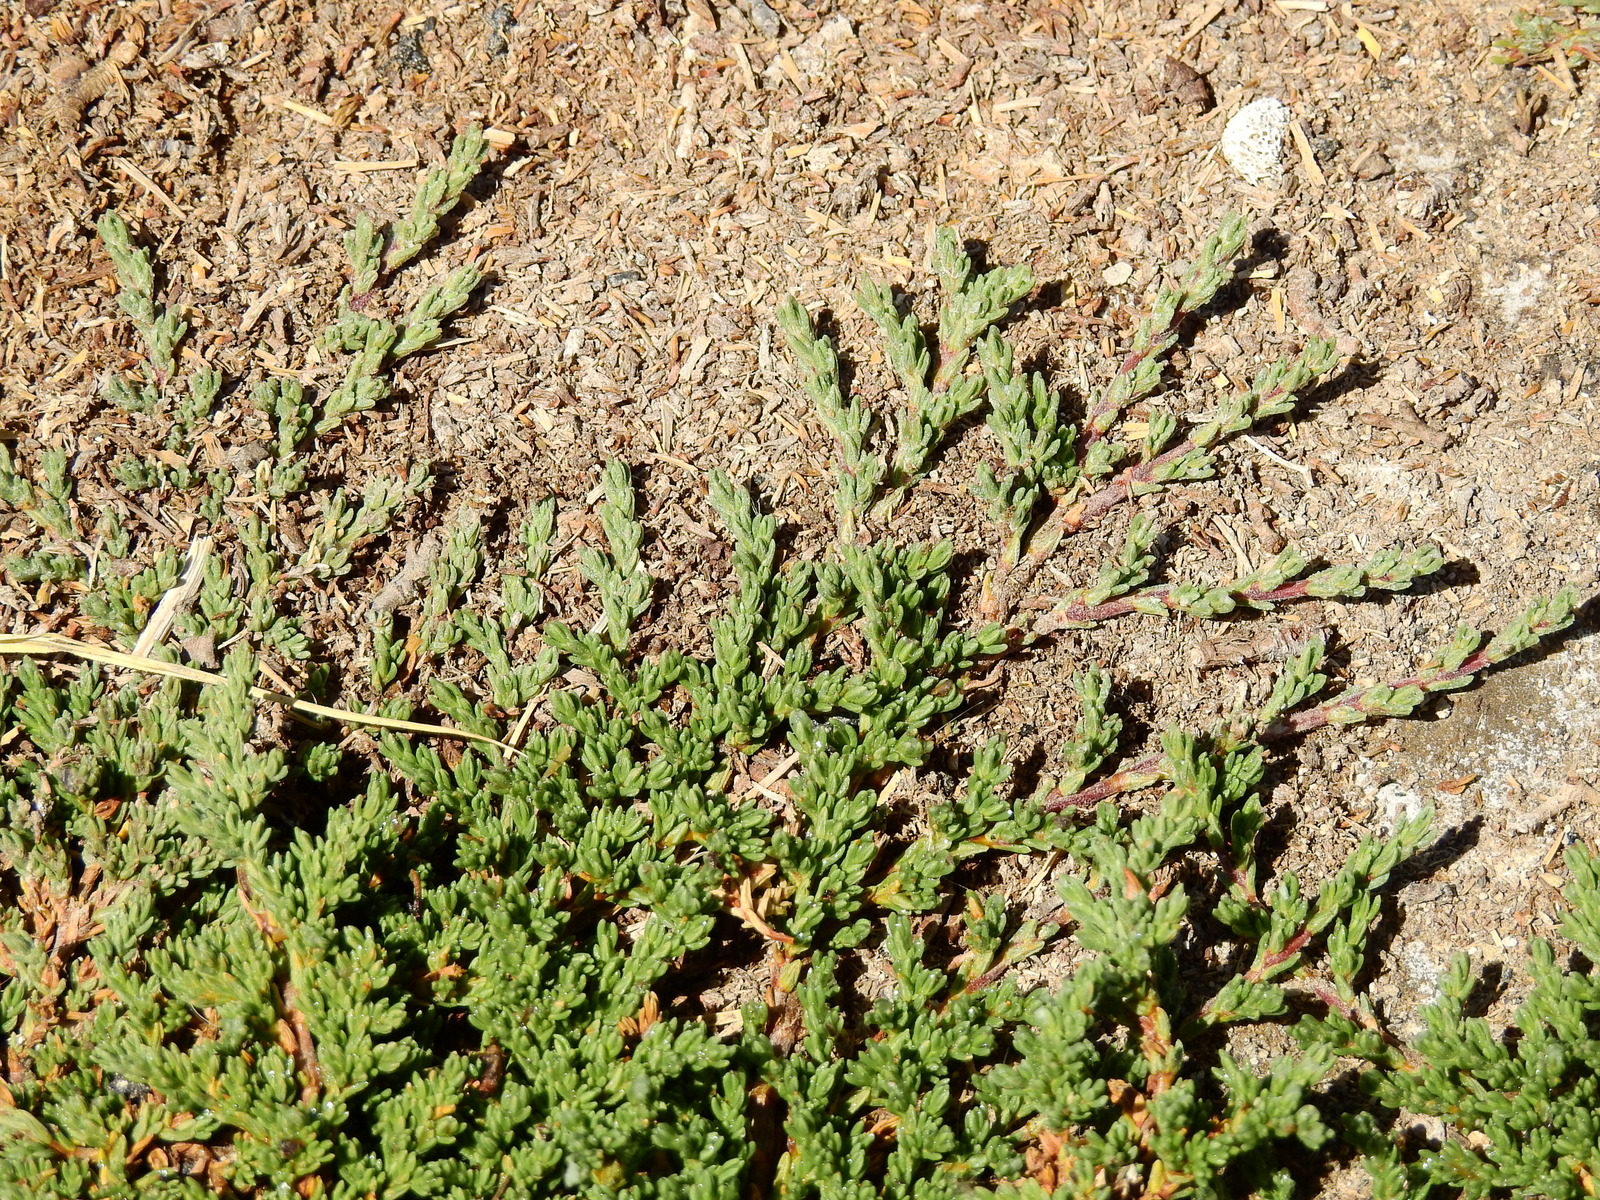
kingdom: Plantae
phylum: Tracheophyta
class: Magnoliopsida
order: Caryophyllales
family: Frankeniaceae
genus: Frankenia
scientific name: Frankenia juniperoides
